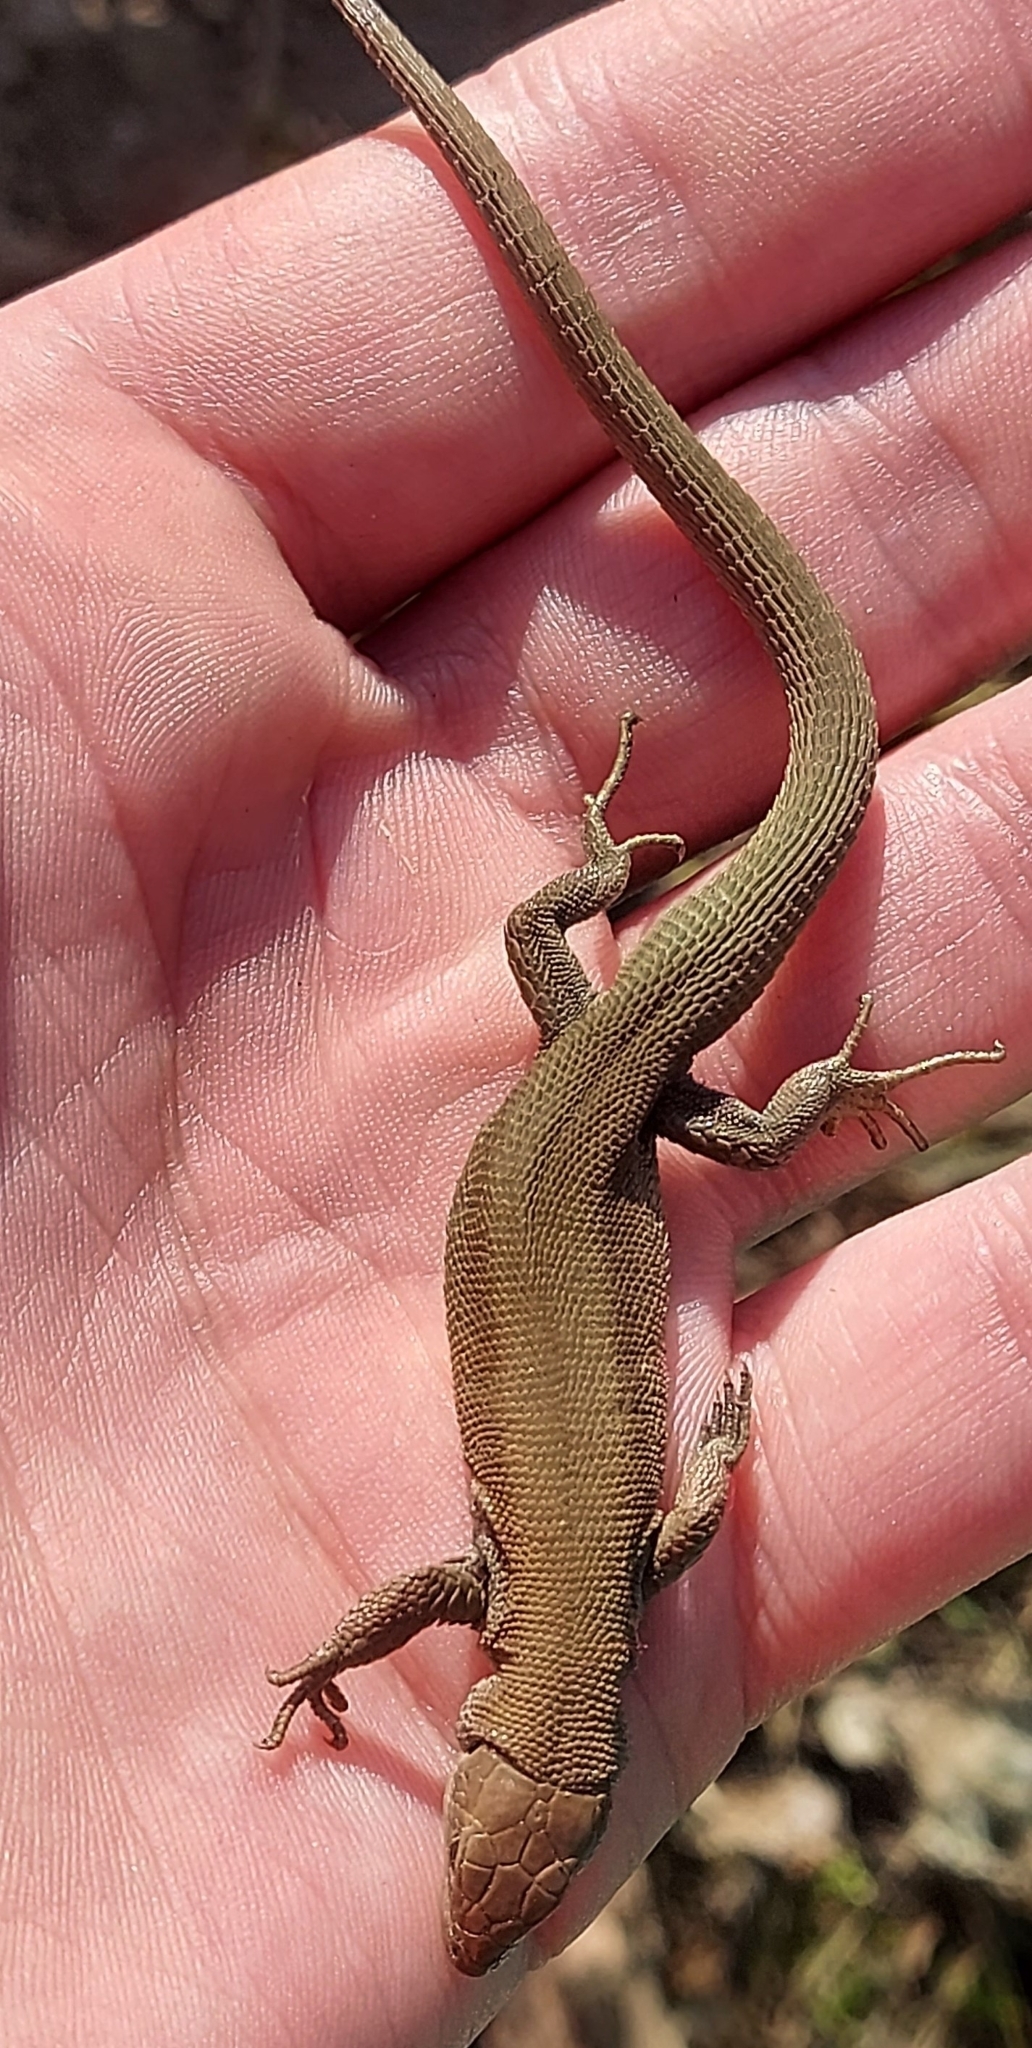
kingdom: Animalia
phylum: Chordata
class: Squamata
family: Lacertidae
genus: Zootoca
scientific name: Zootoca vivipara
